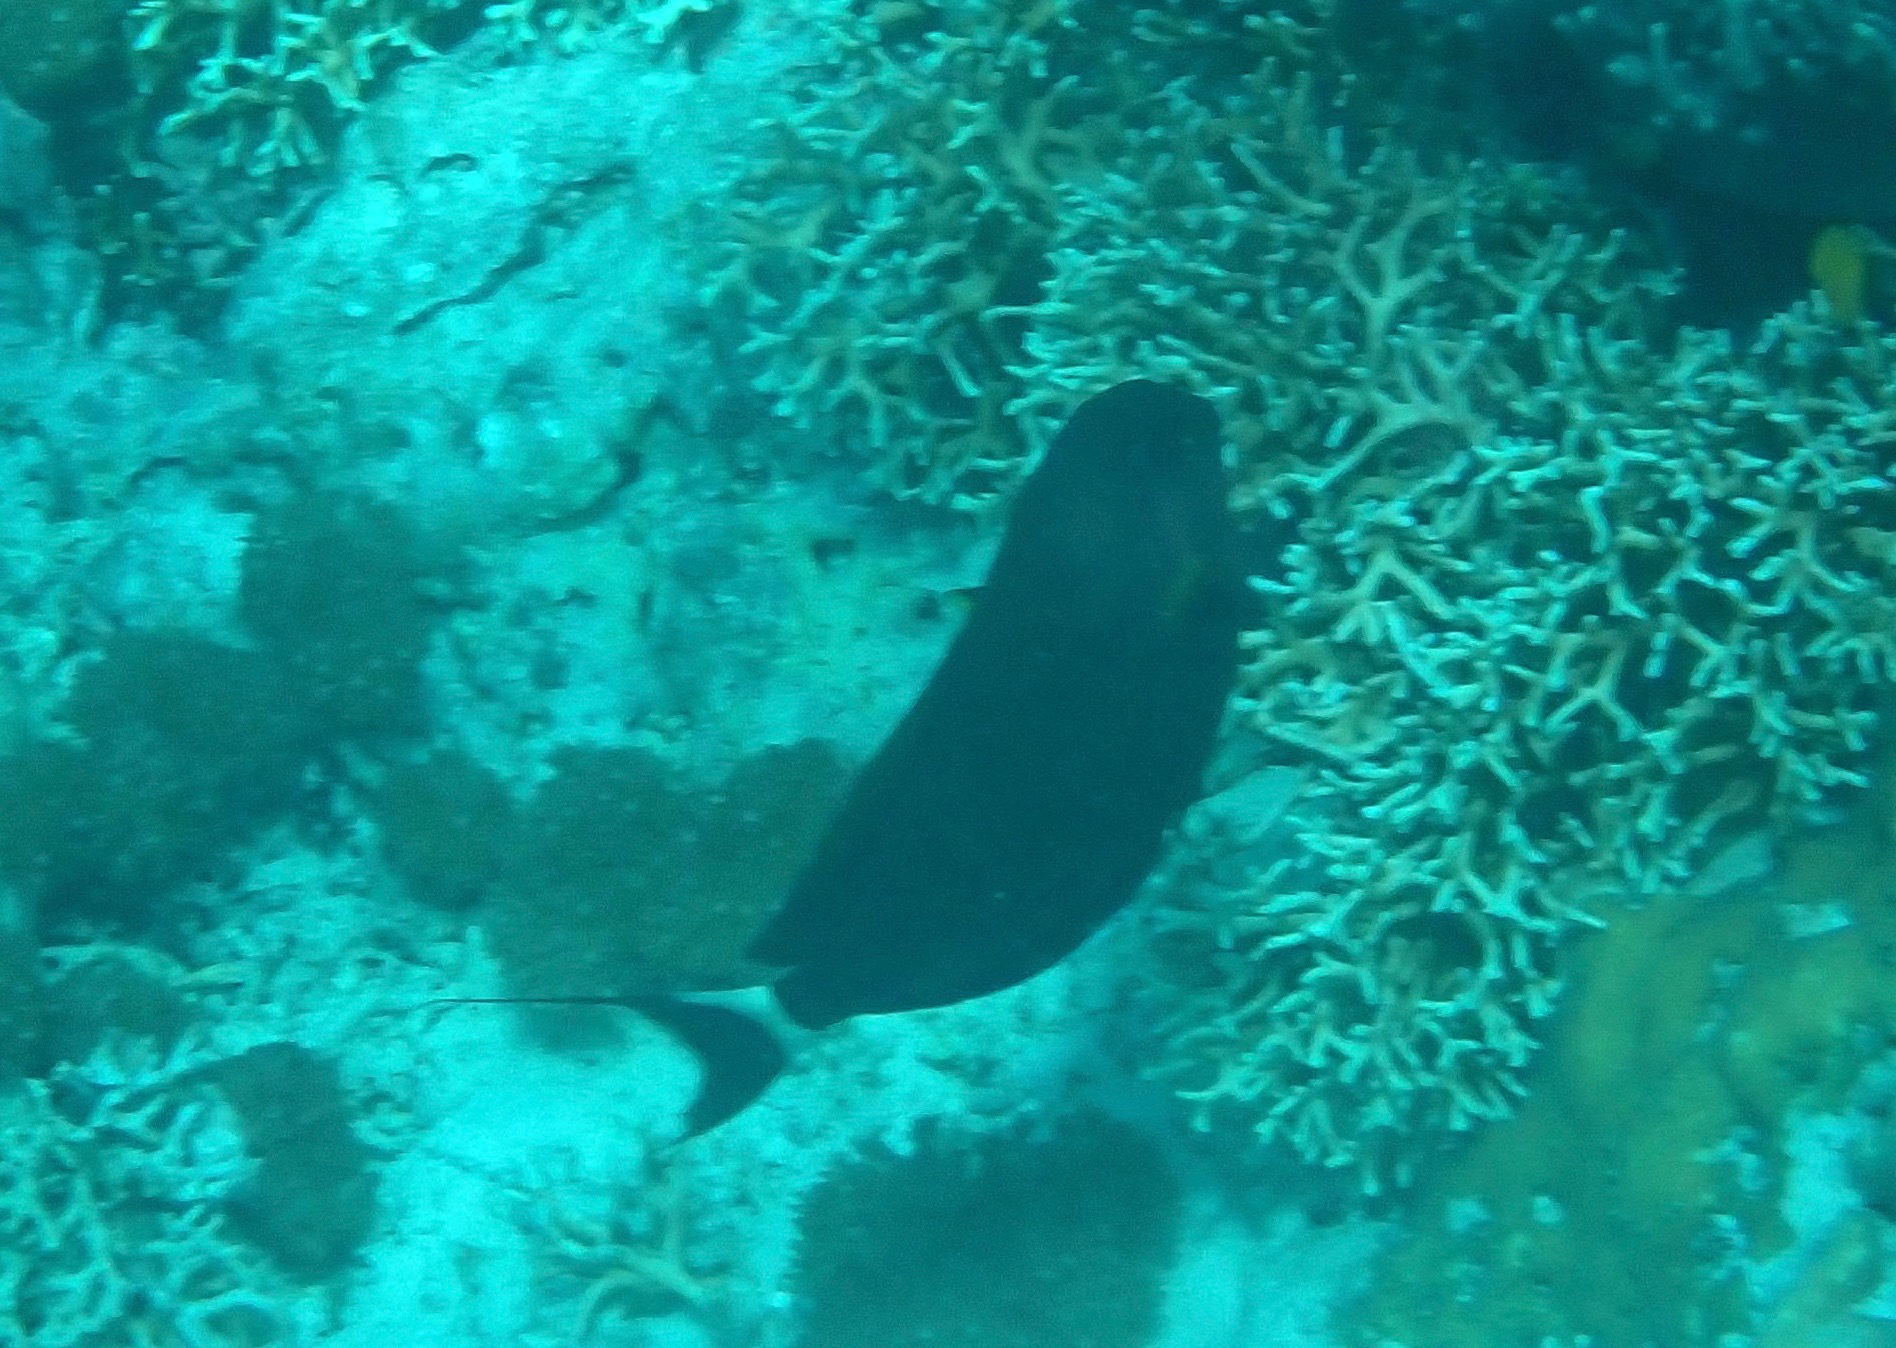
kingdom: Animalia
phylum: Chordata
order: Perciformes
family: Acanthuridae
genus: Acanthurus
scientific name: Acanthurus nigricauda
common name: Black-barred surgeonfish
